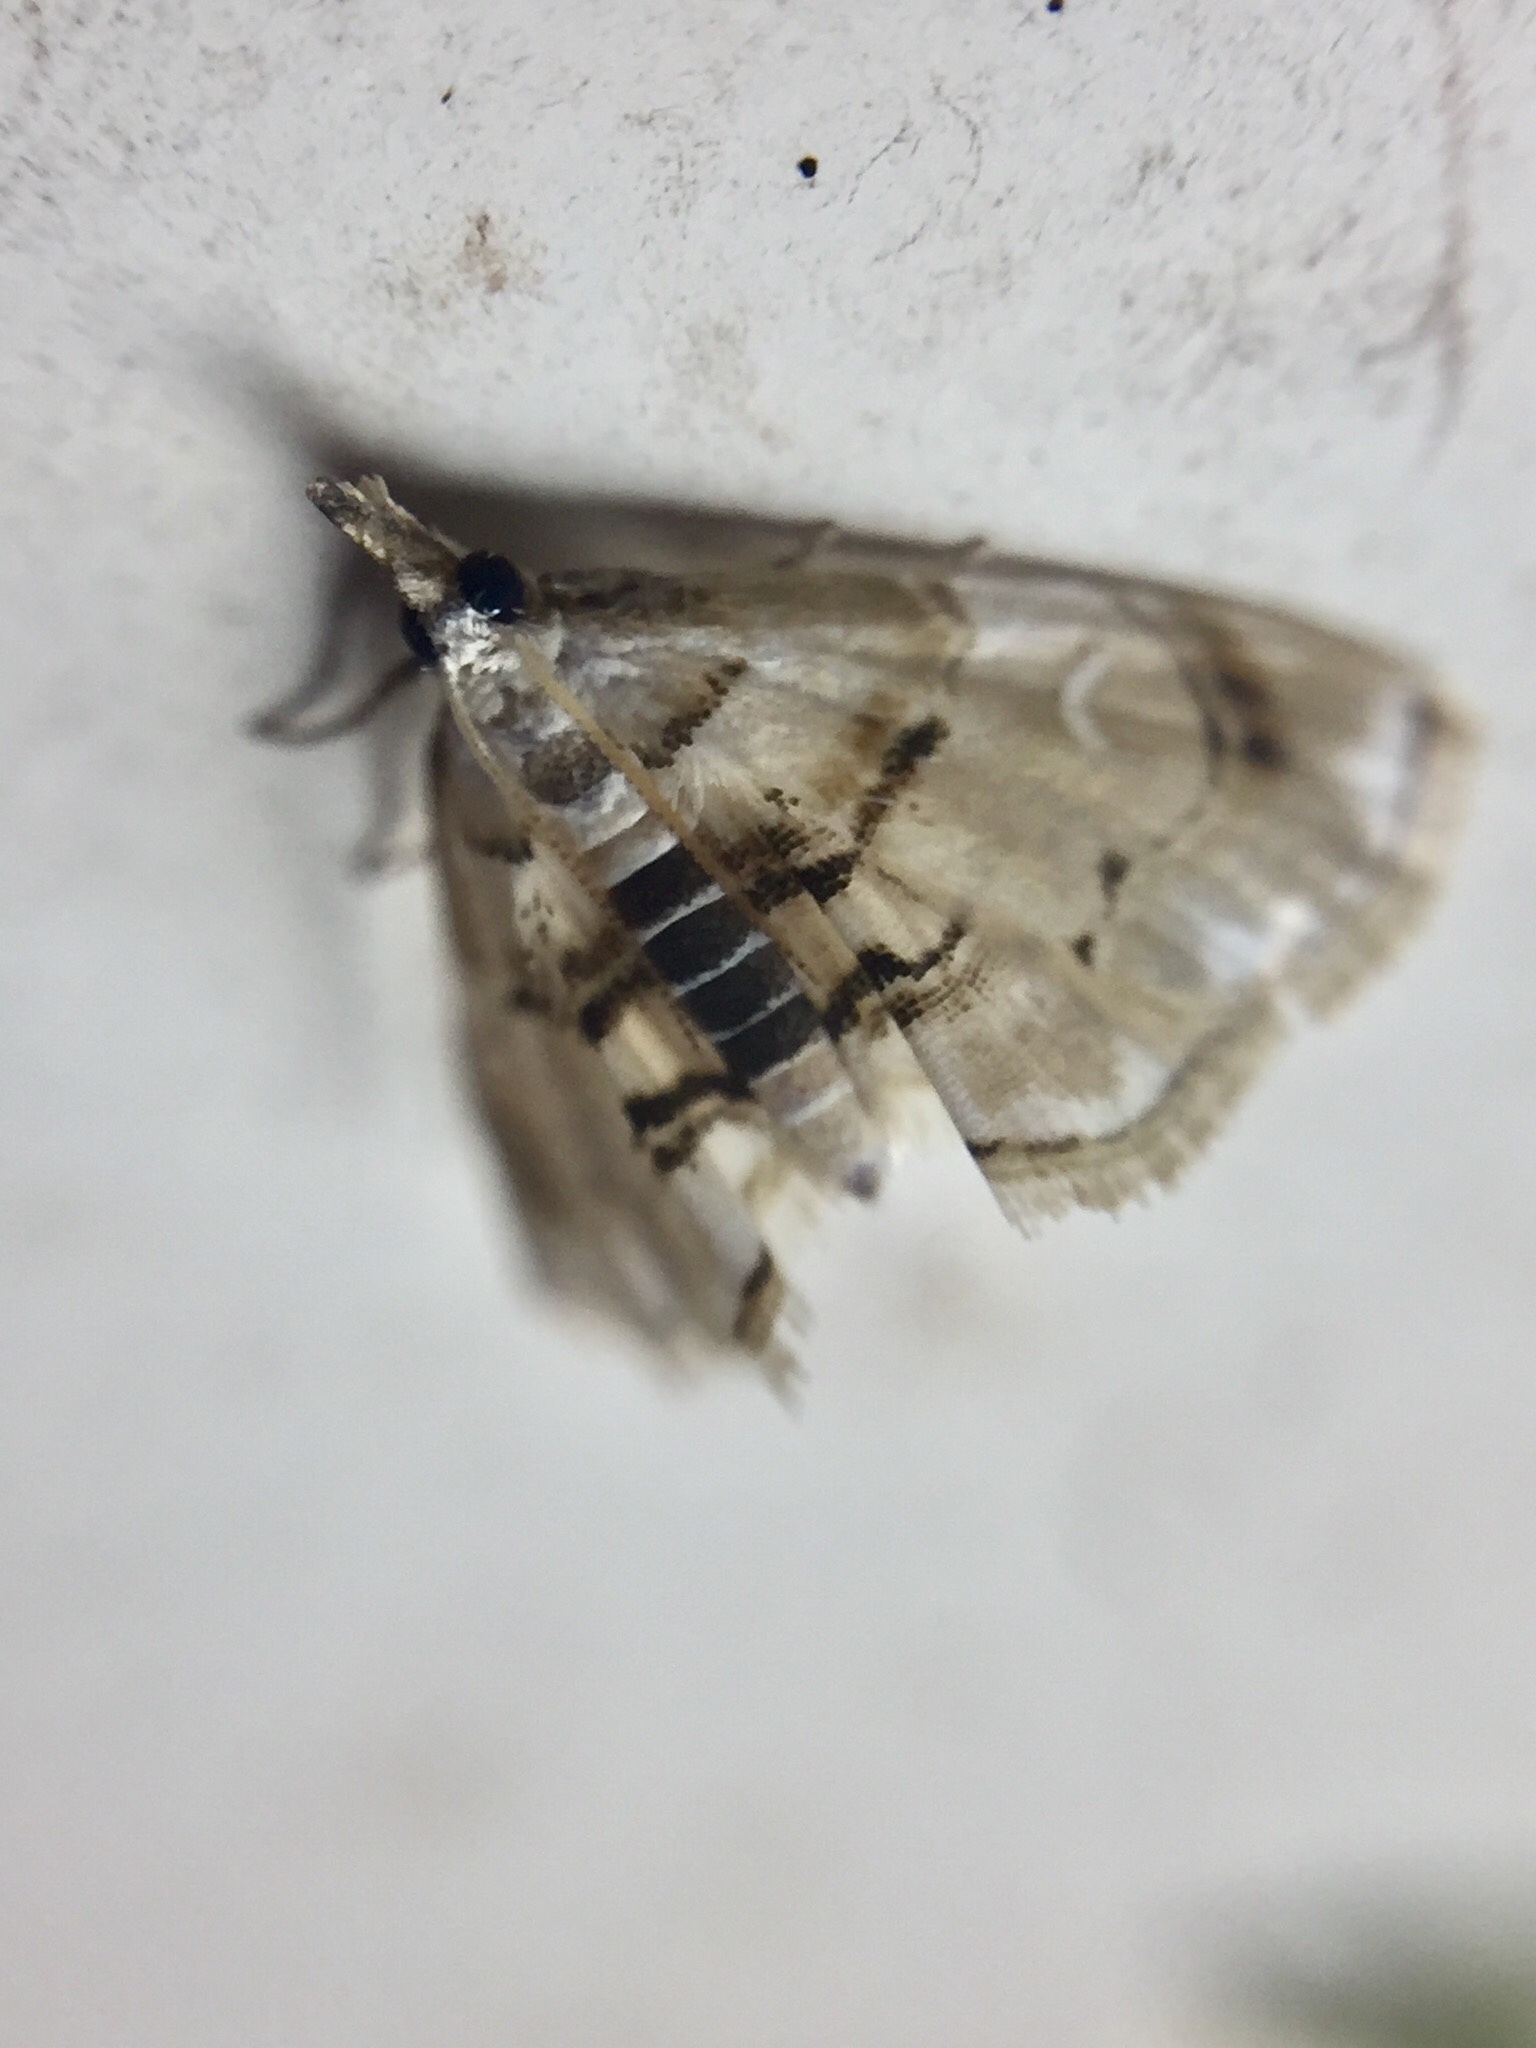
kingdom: Animalia
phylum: Arthropoda
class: Insecta
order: Lepidoptera
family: Crambidae
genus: Trichophysetis
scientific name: Trichophysetis
